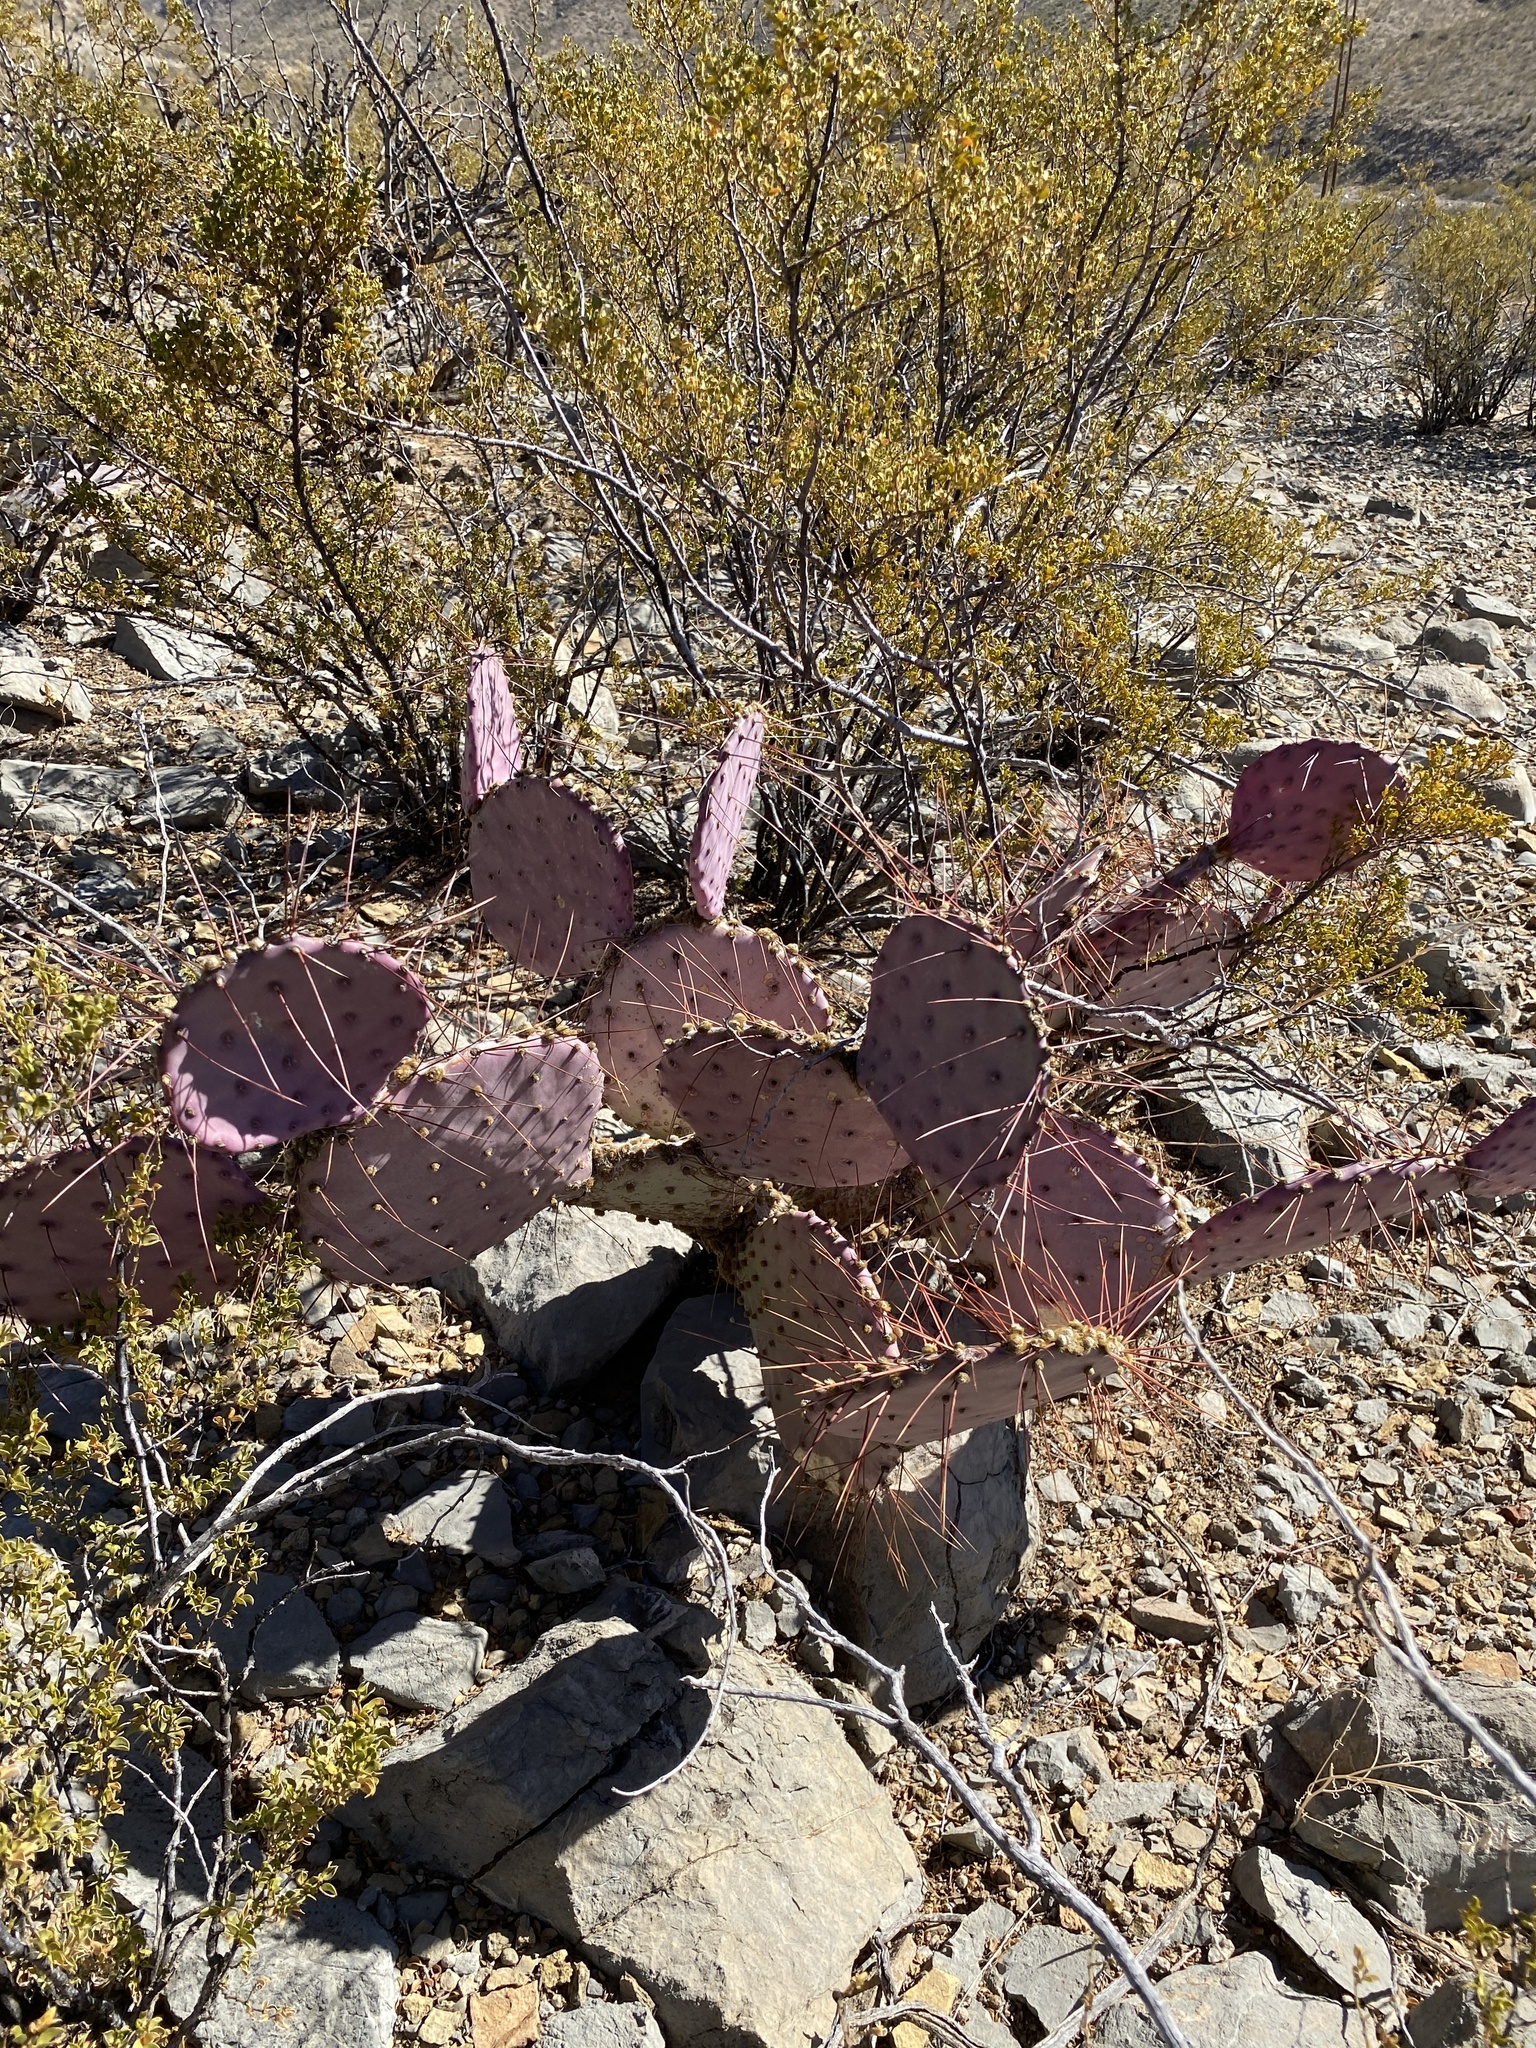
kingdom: Plantae
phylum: Tracheophyta
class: Magnoliopsida
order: Caryophyllales
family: Cactaceae
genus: Opuntia
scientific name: Opuntia macrocentra
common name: Purple prickly-pear
